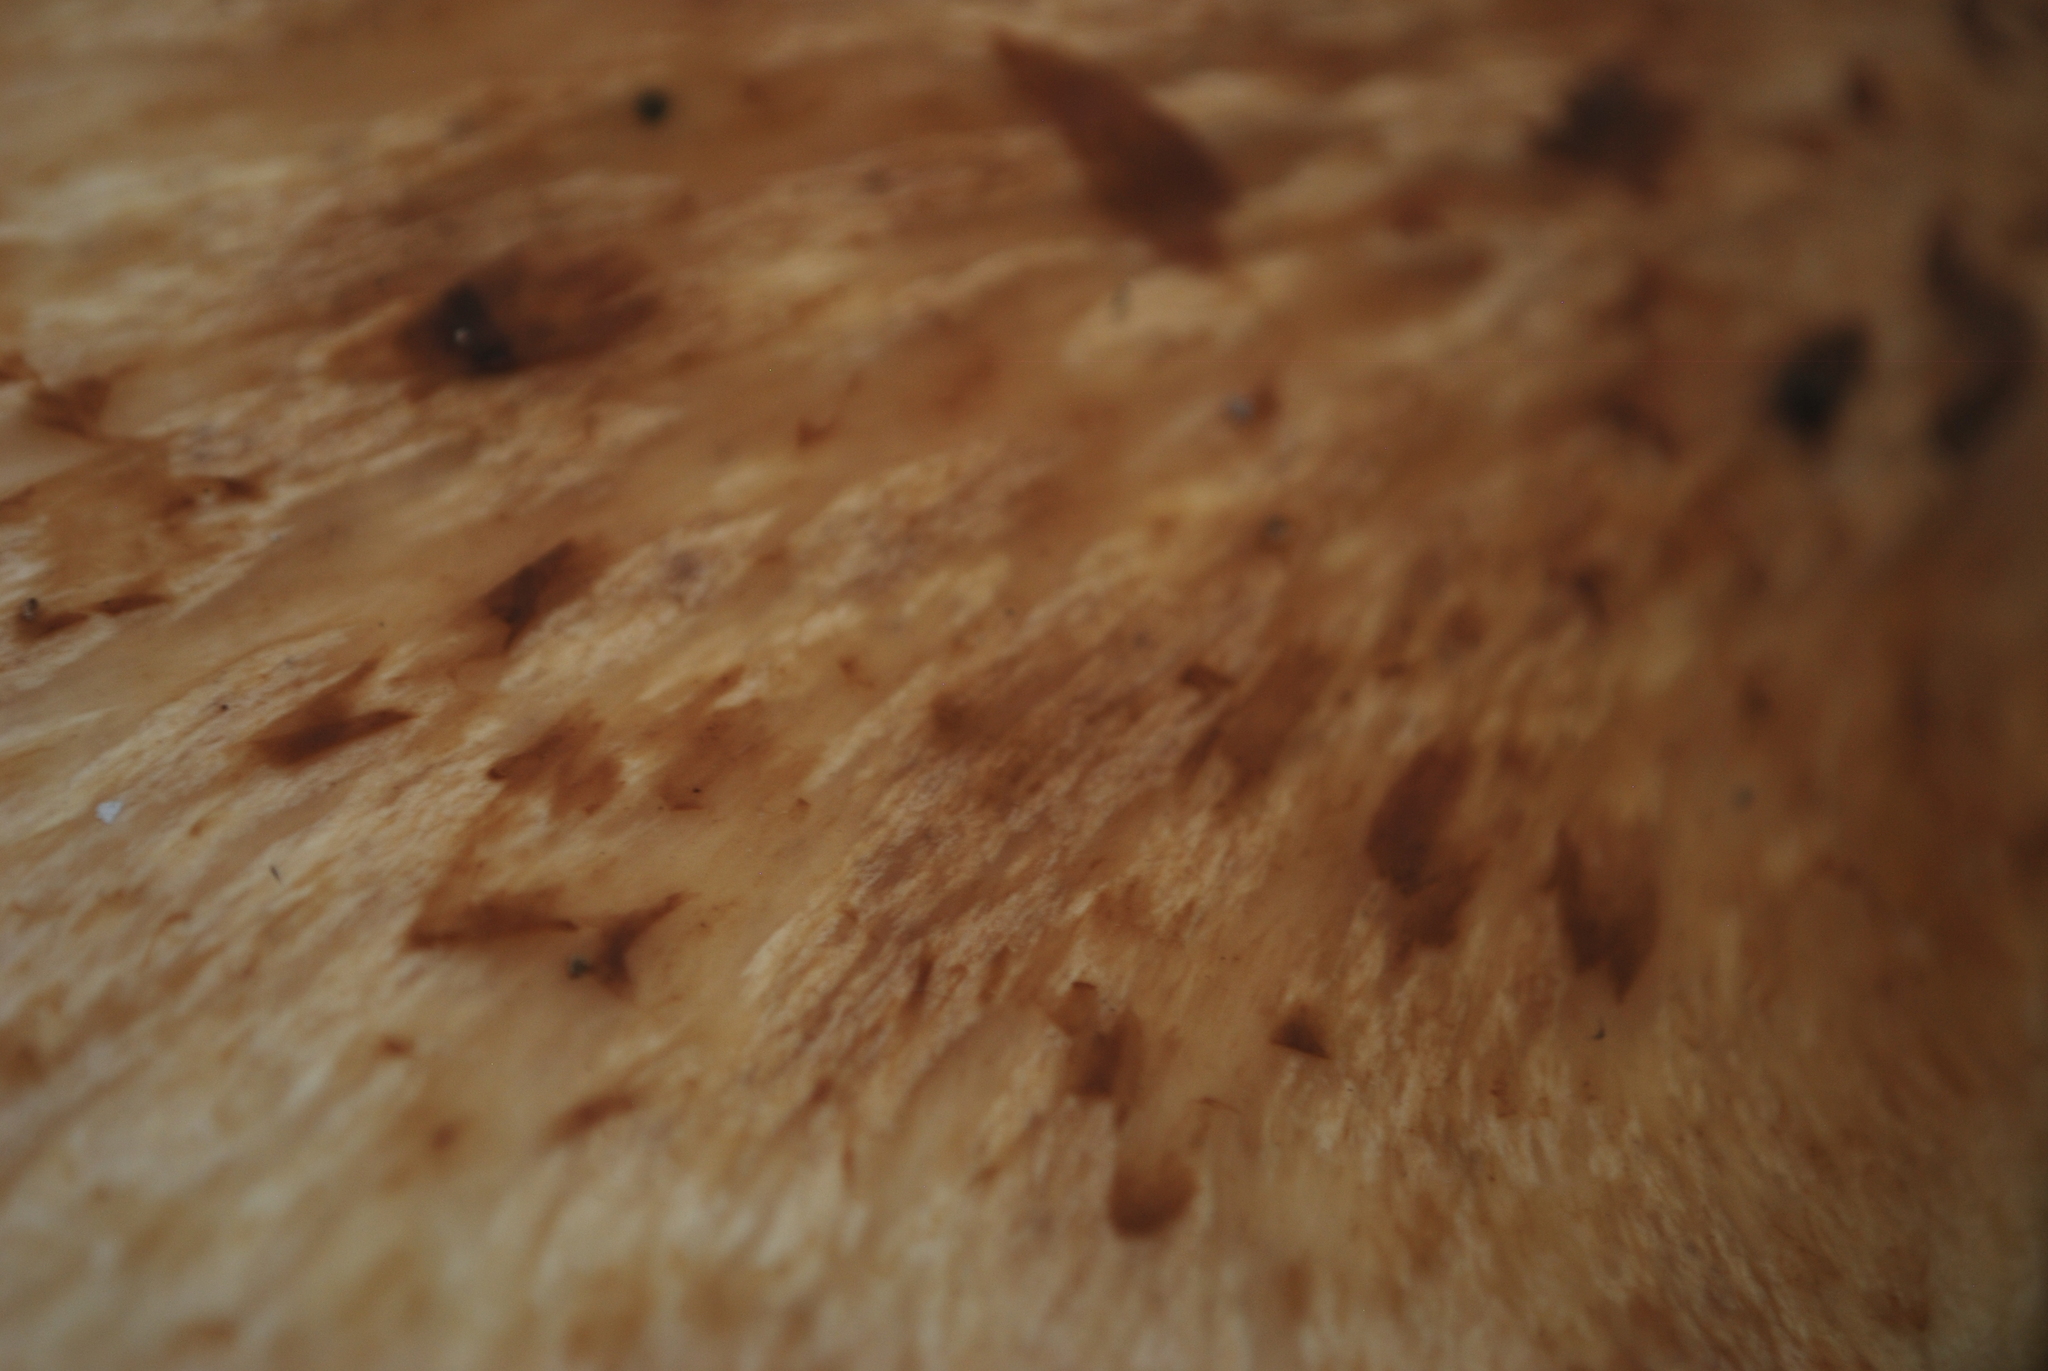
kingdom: Fungi
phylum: Basidiomycota
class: Agaricomycetes
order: Polyporales
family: Polyporaceae
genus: Cerioporus
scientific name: Cerioporus squamosus
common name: Dryad's saddle
